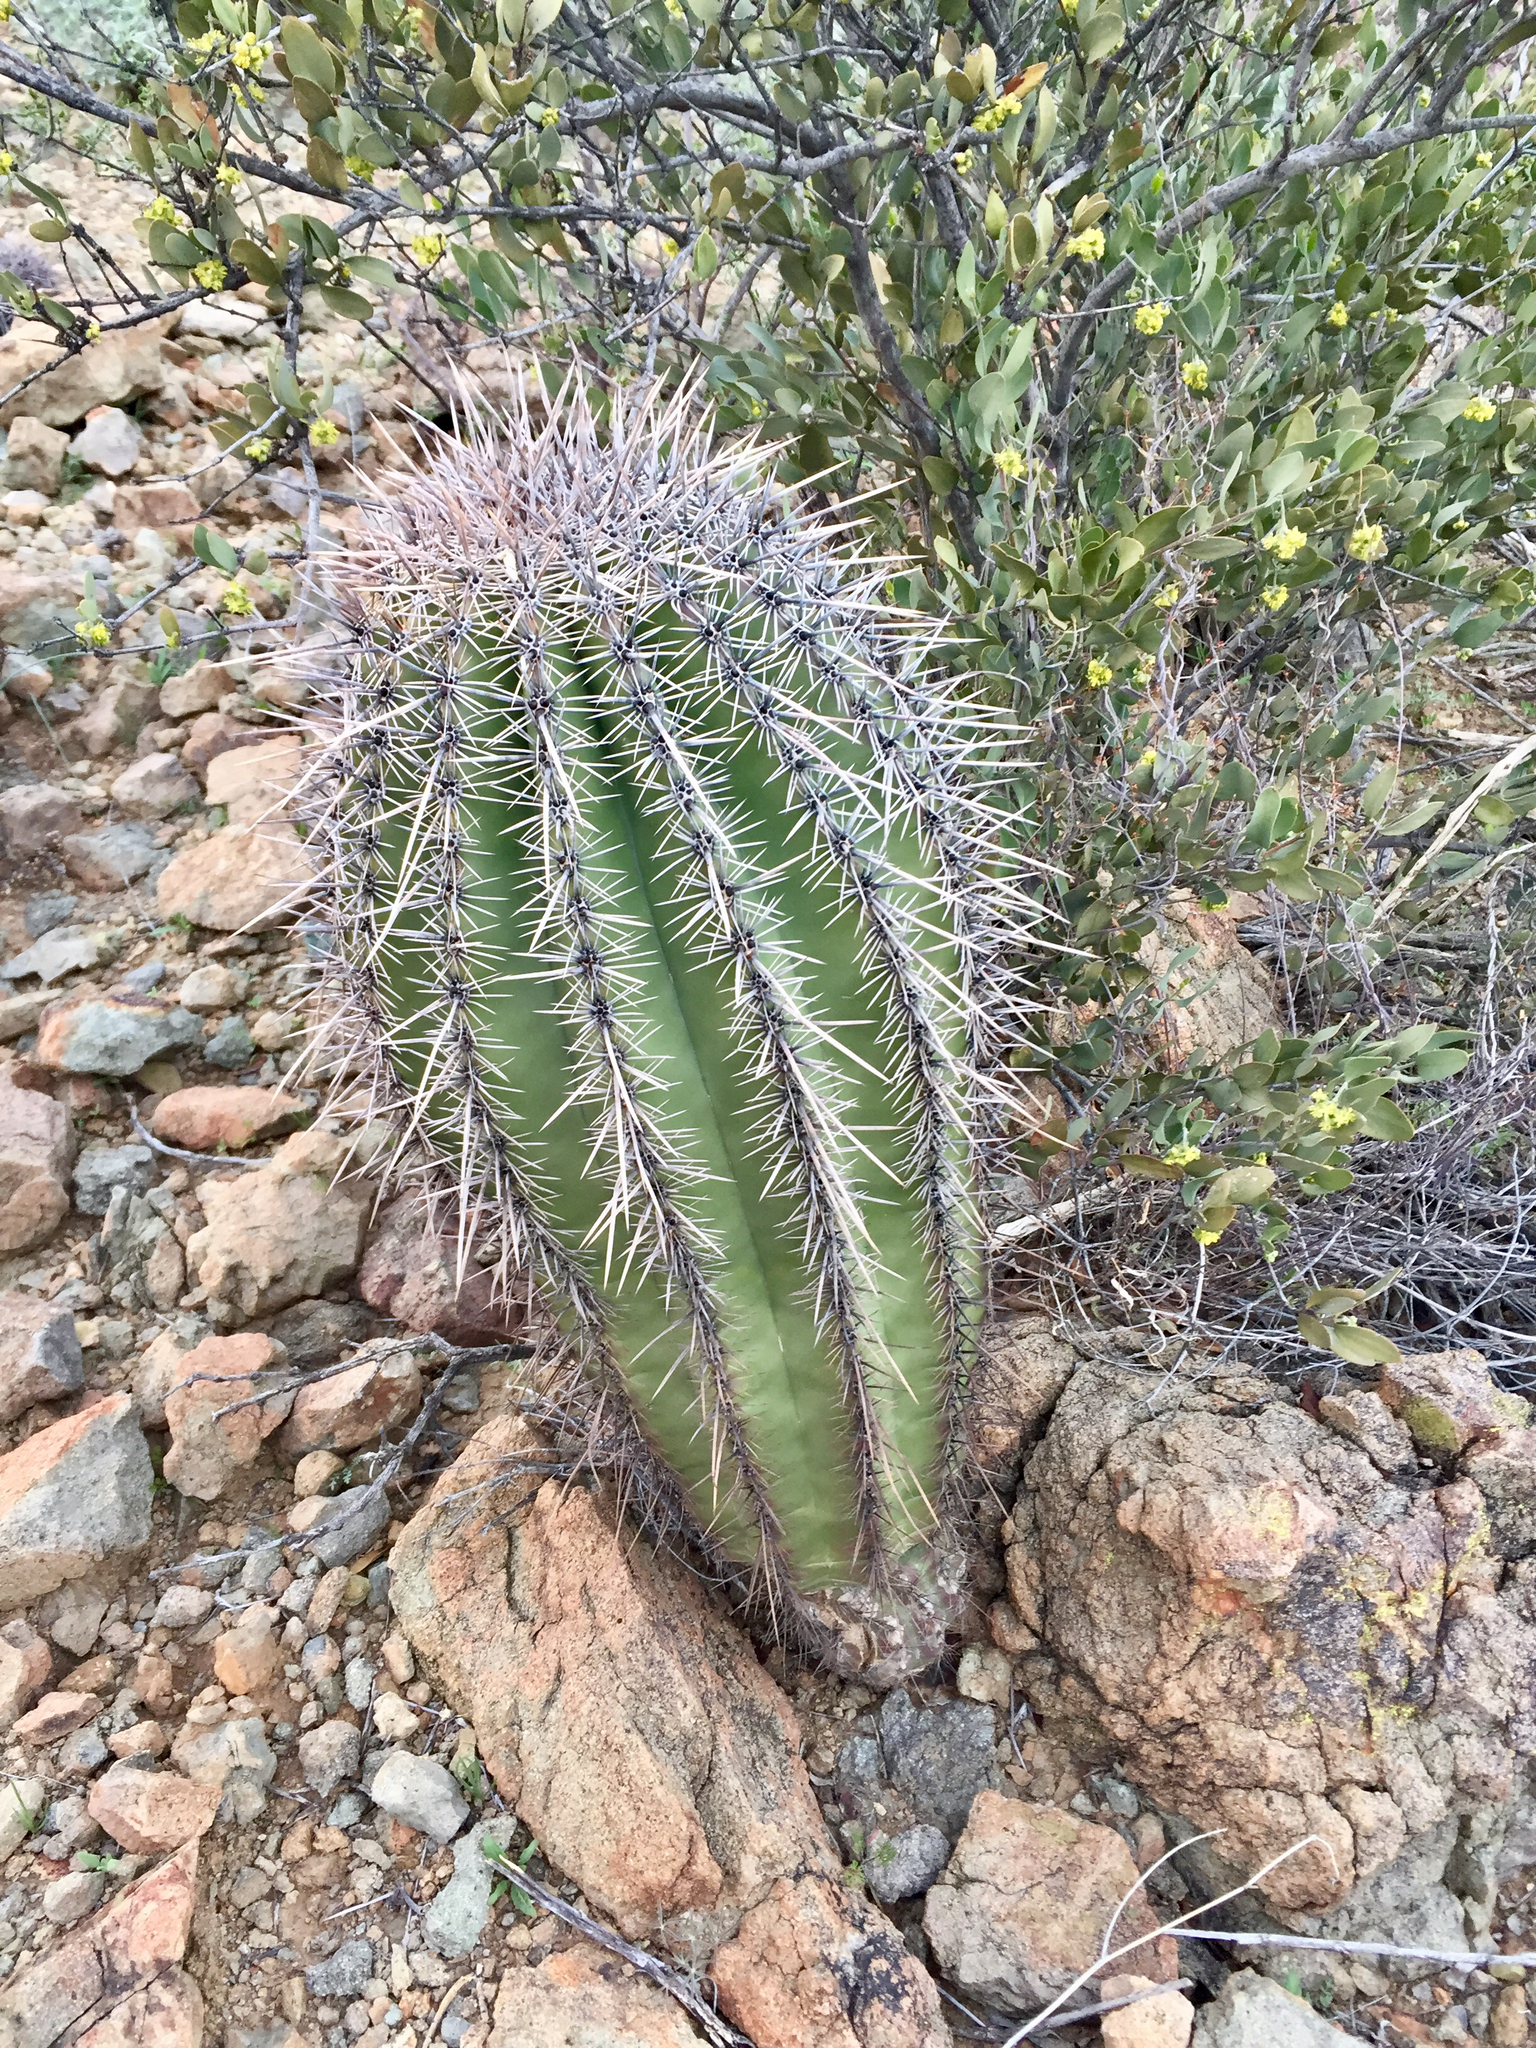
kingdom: Plantae
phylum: Tracheophyta
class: Magnoliopsida
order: Caryophyllales
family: Cactaceae
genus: Carnegiea
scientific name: Carnegiea gigantea
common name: Saguaro
